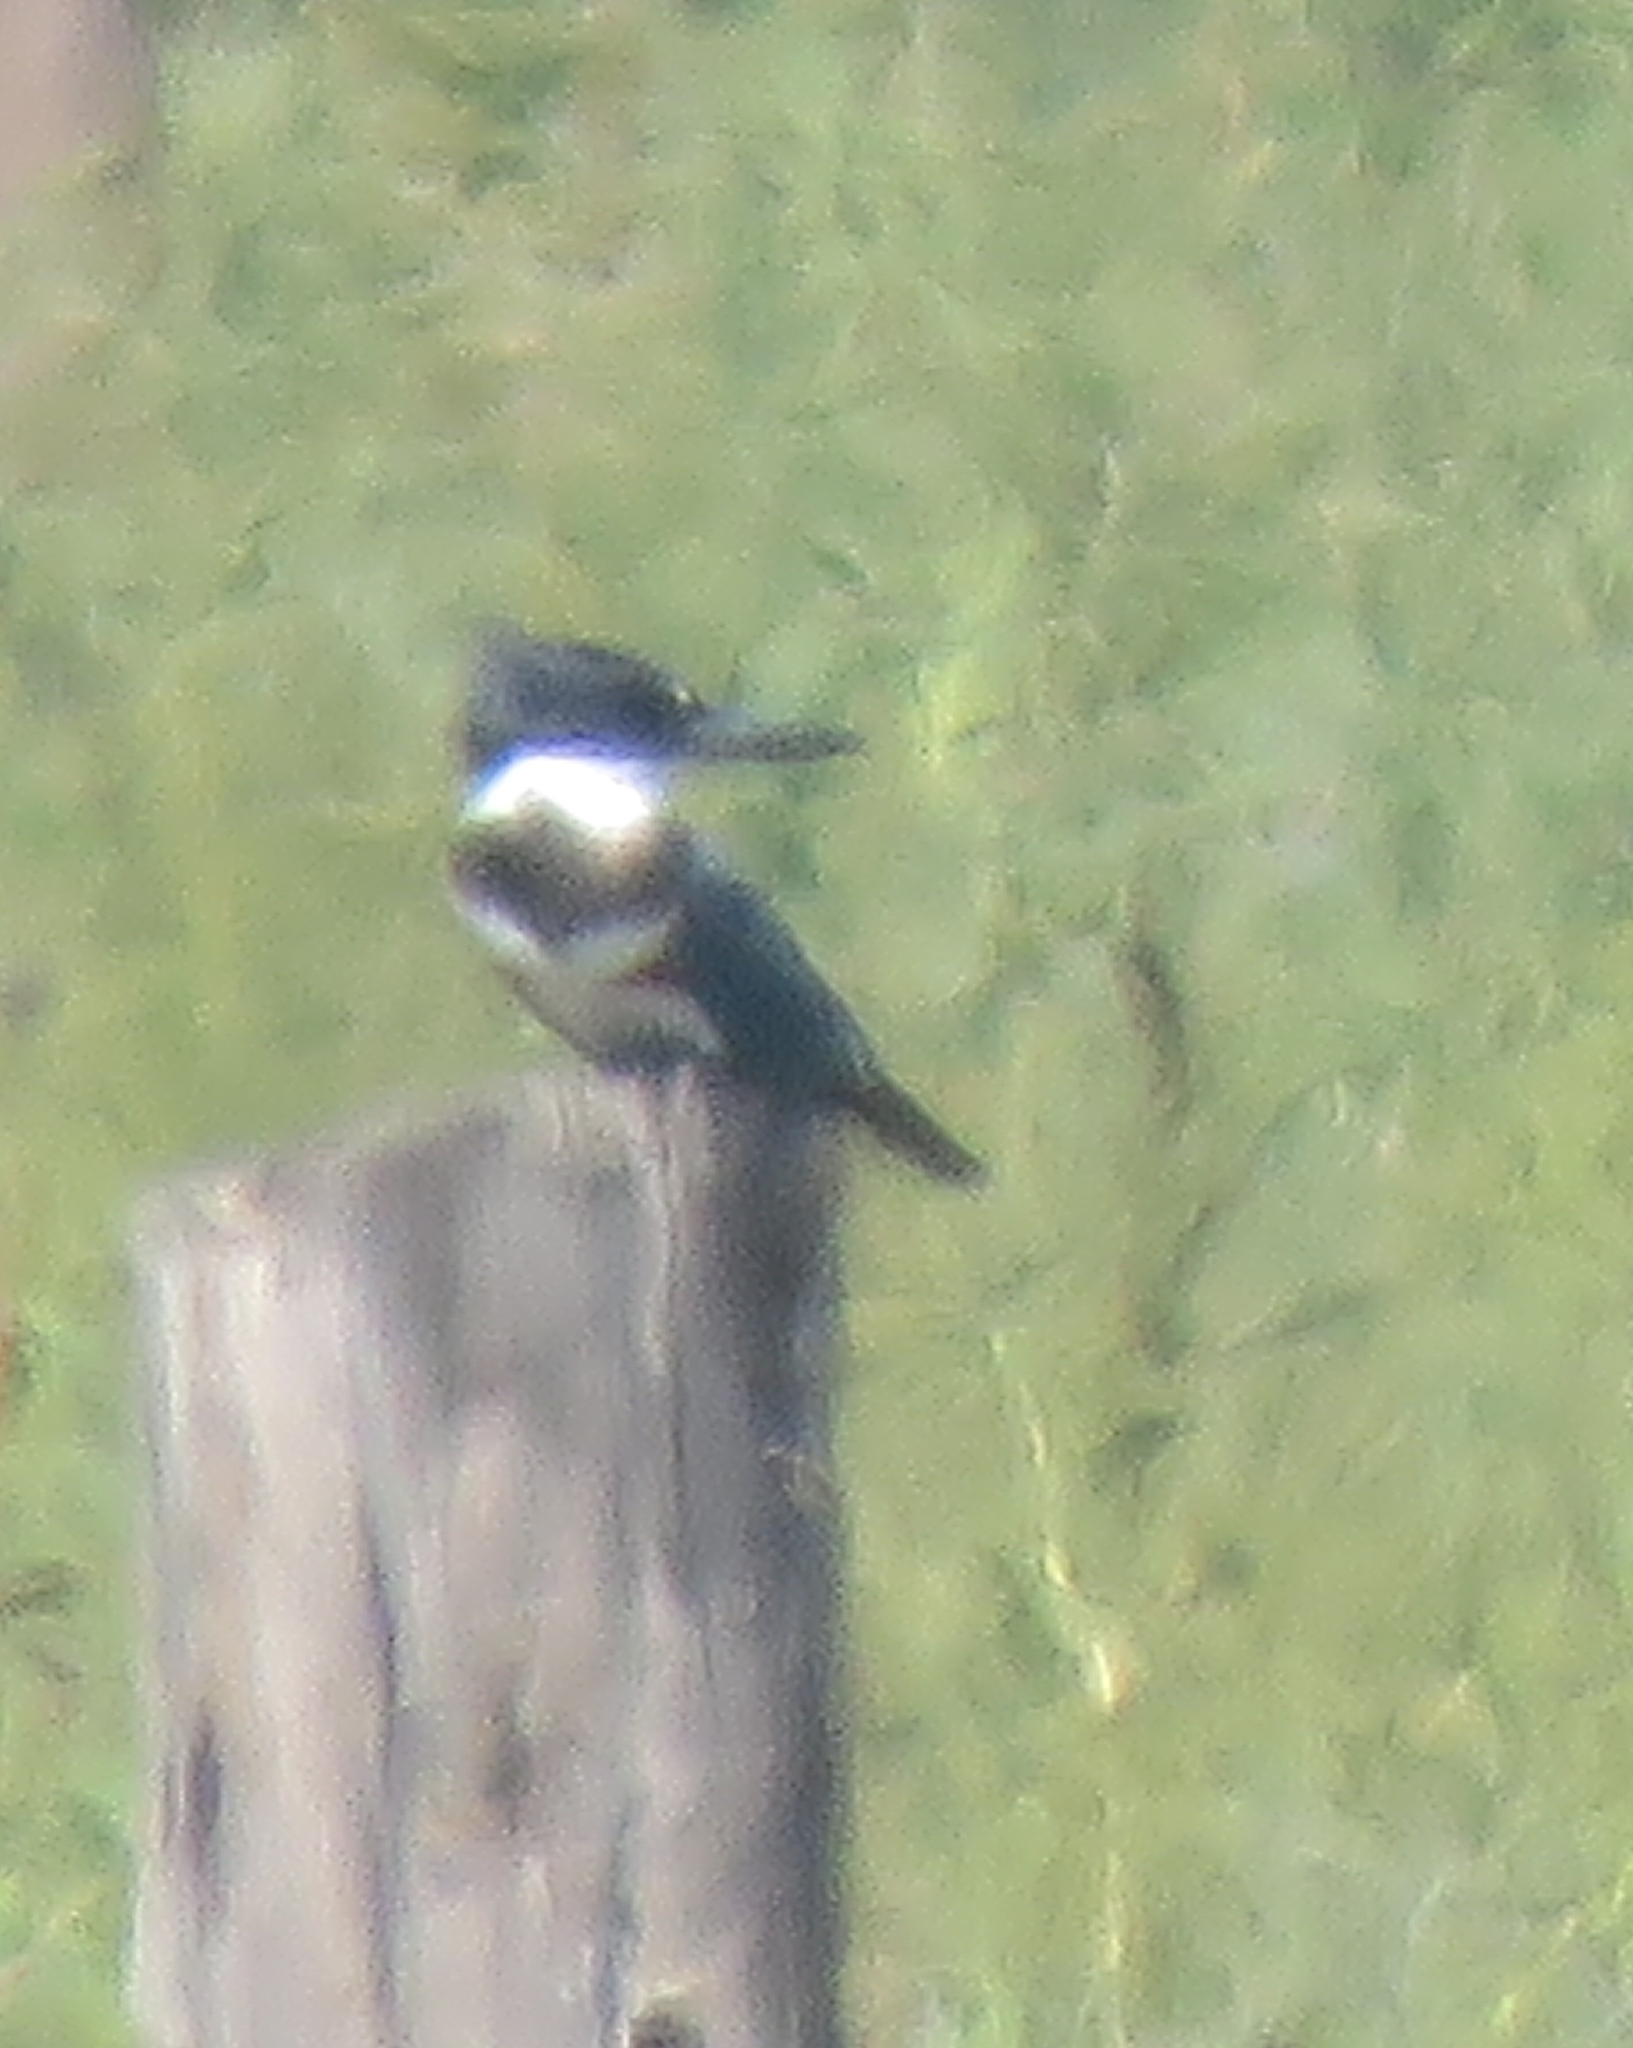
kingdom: Animalia
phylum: Chordata
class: Aves
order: Coraciiformes
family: Alcedinidae
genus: Megaceryle
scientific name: Megaceryle alcyon
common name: Belted kingfisher
